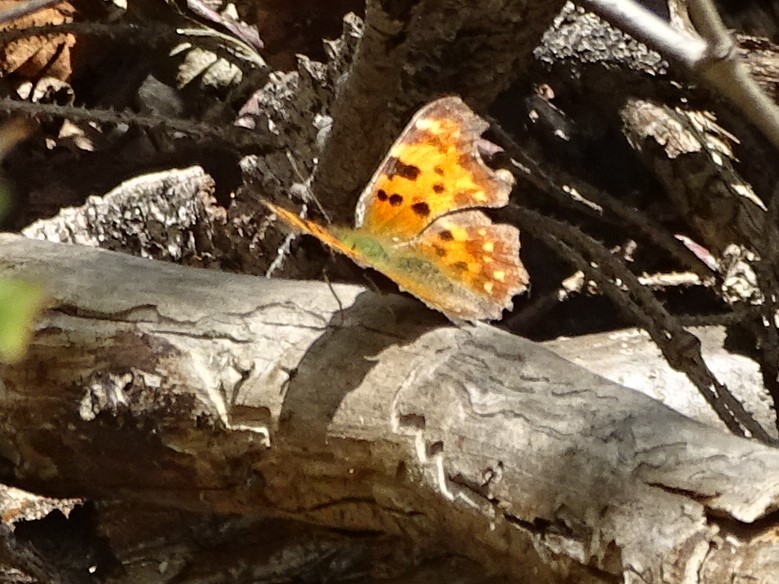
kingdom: Animalia
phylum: Arthropoda
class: Insecta
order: Lepidoptera
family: Nymphalidae
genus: Polygonia
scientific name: Polygonia c-album
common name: Comma
